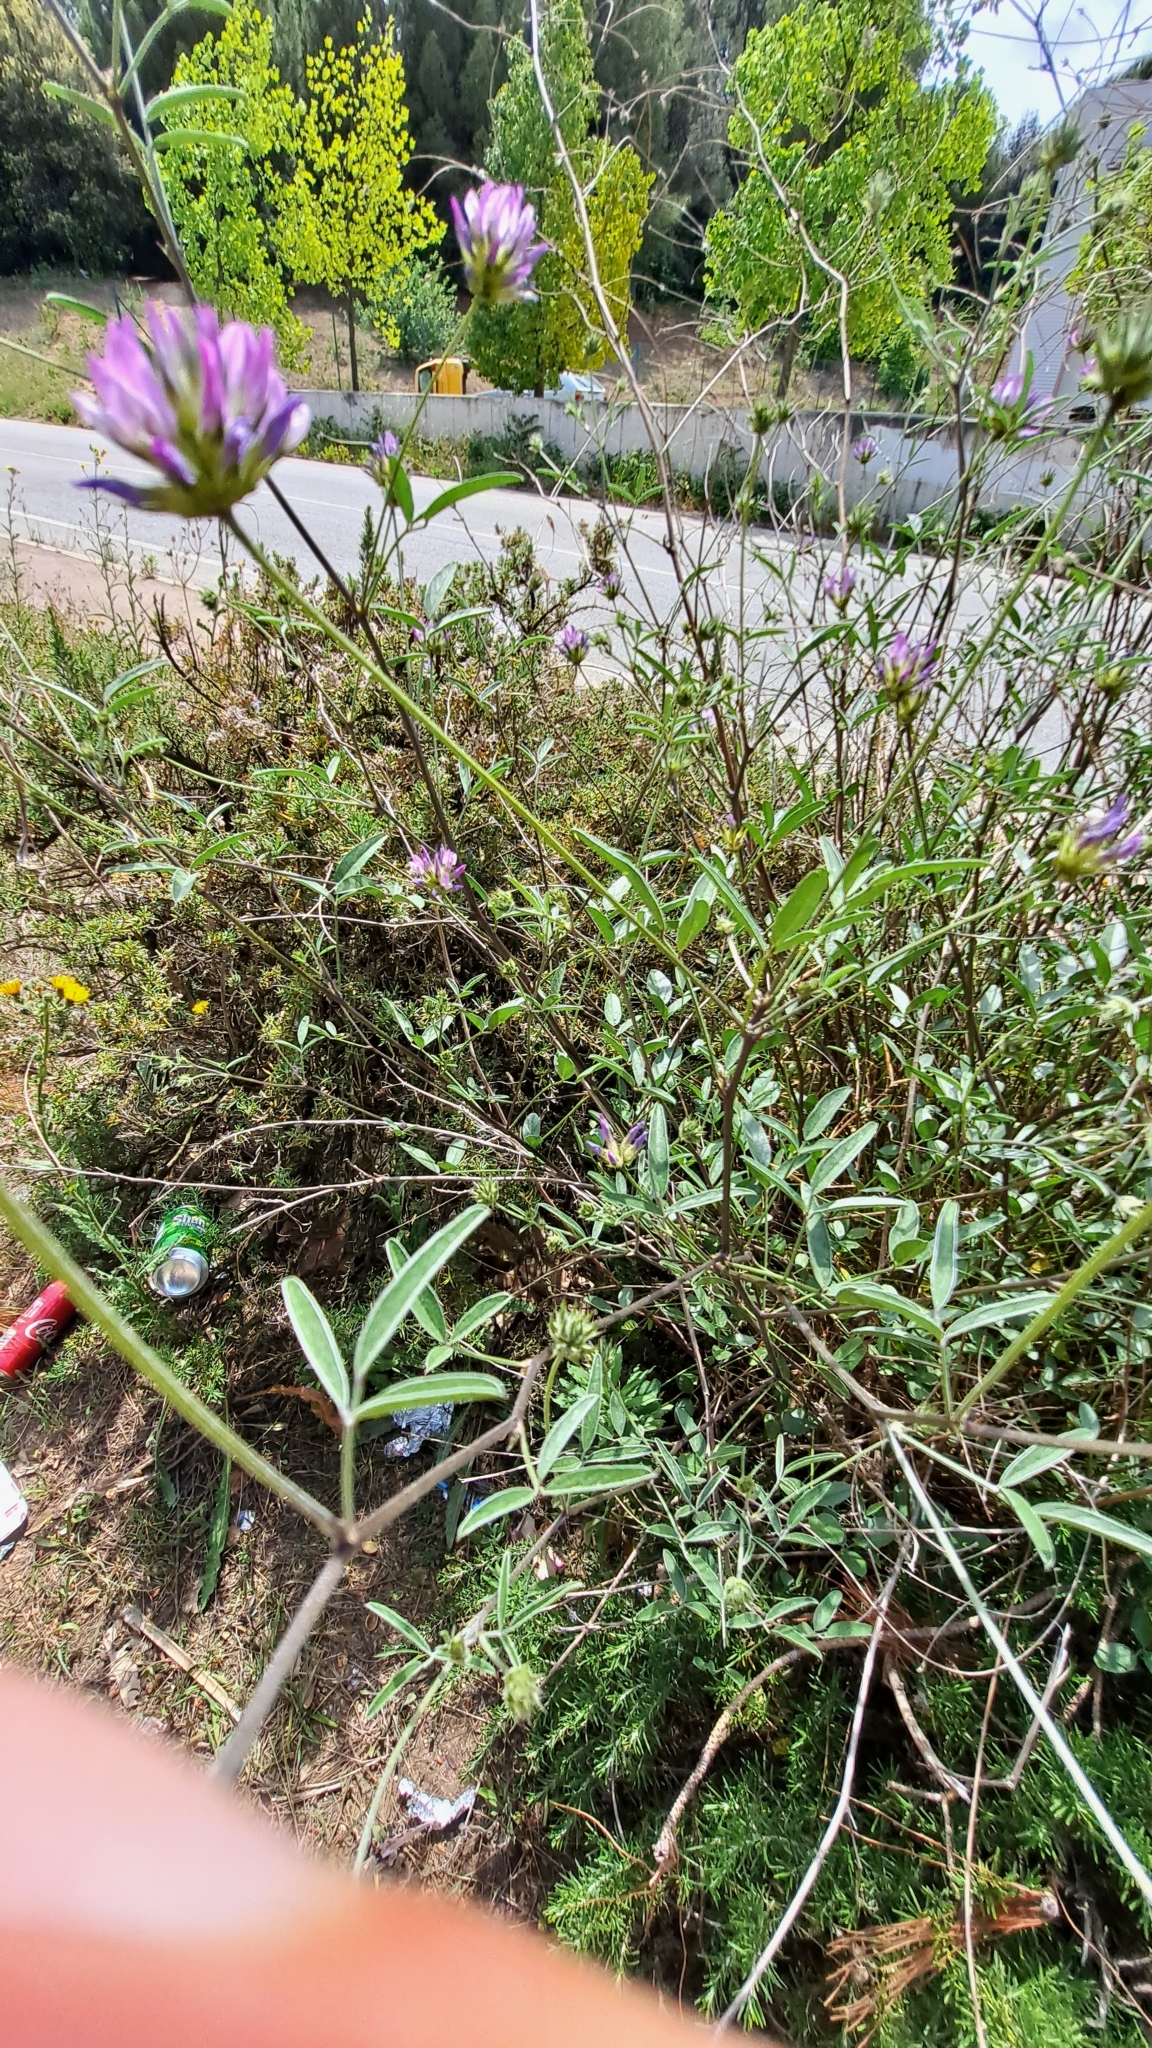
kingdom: Plantae
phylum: Tracheophyta
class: Magnoliopsida
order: Fabales
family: Fabaceae
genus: Bituminaria
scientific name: Bituminaria bituminosa
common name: Arabian pea
